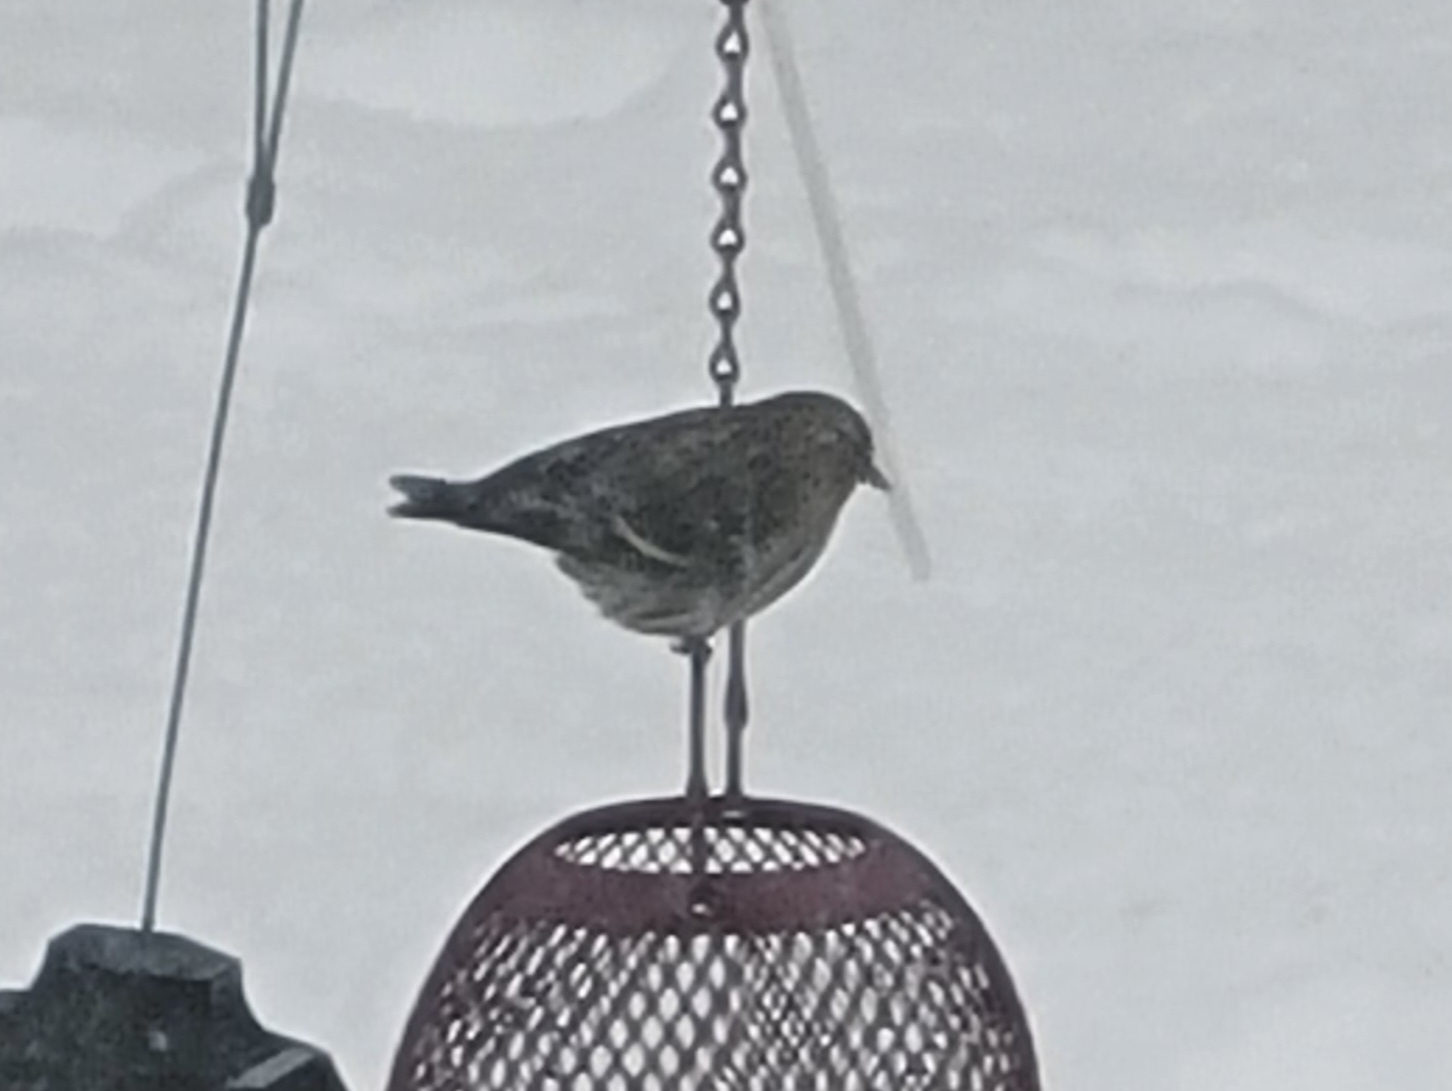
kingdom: Animalia
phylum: Chordata
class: Aves
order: Passeriformes
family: Fringillidae
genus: Spinus
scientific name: Spinus pinus
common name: Pine siskin
